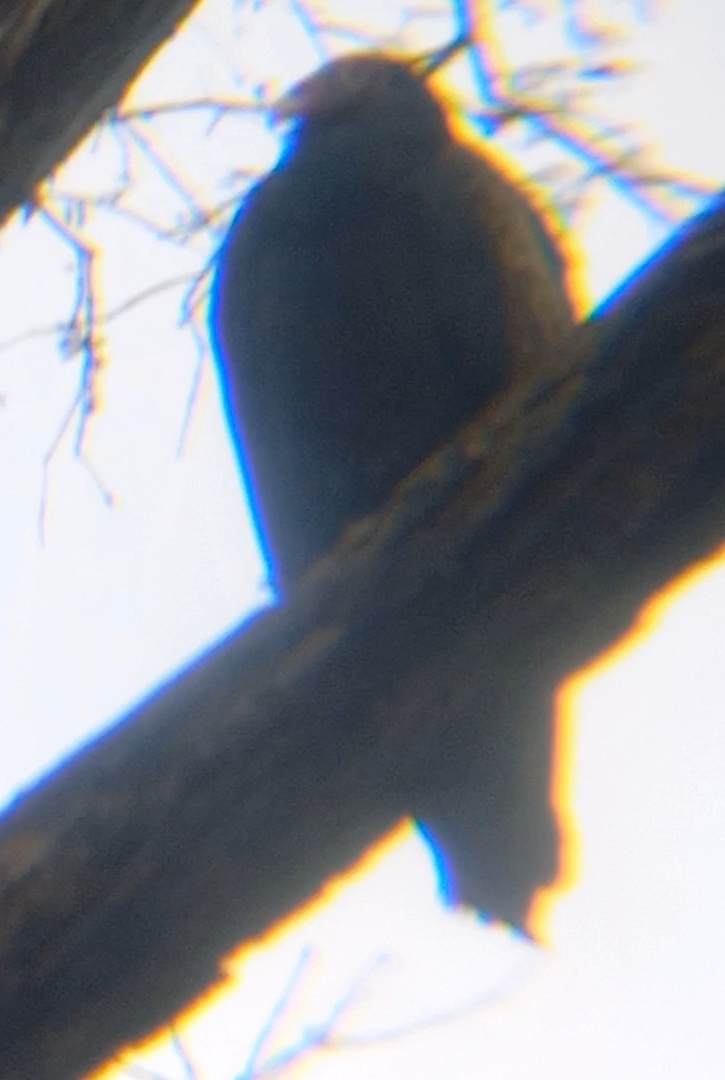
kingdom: Animalia
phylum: Chordata
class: Aves
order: Accipitriformes
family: Cathartidae
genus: Cathartes
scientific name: Cathartes aura
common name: Turkey vulture
